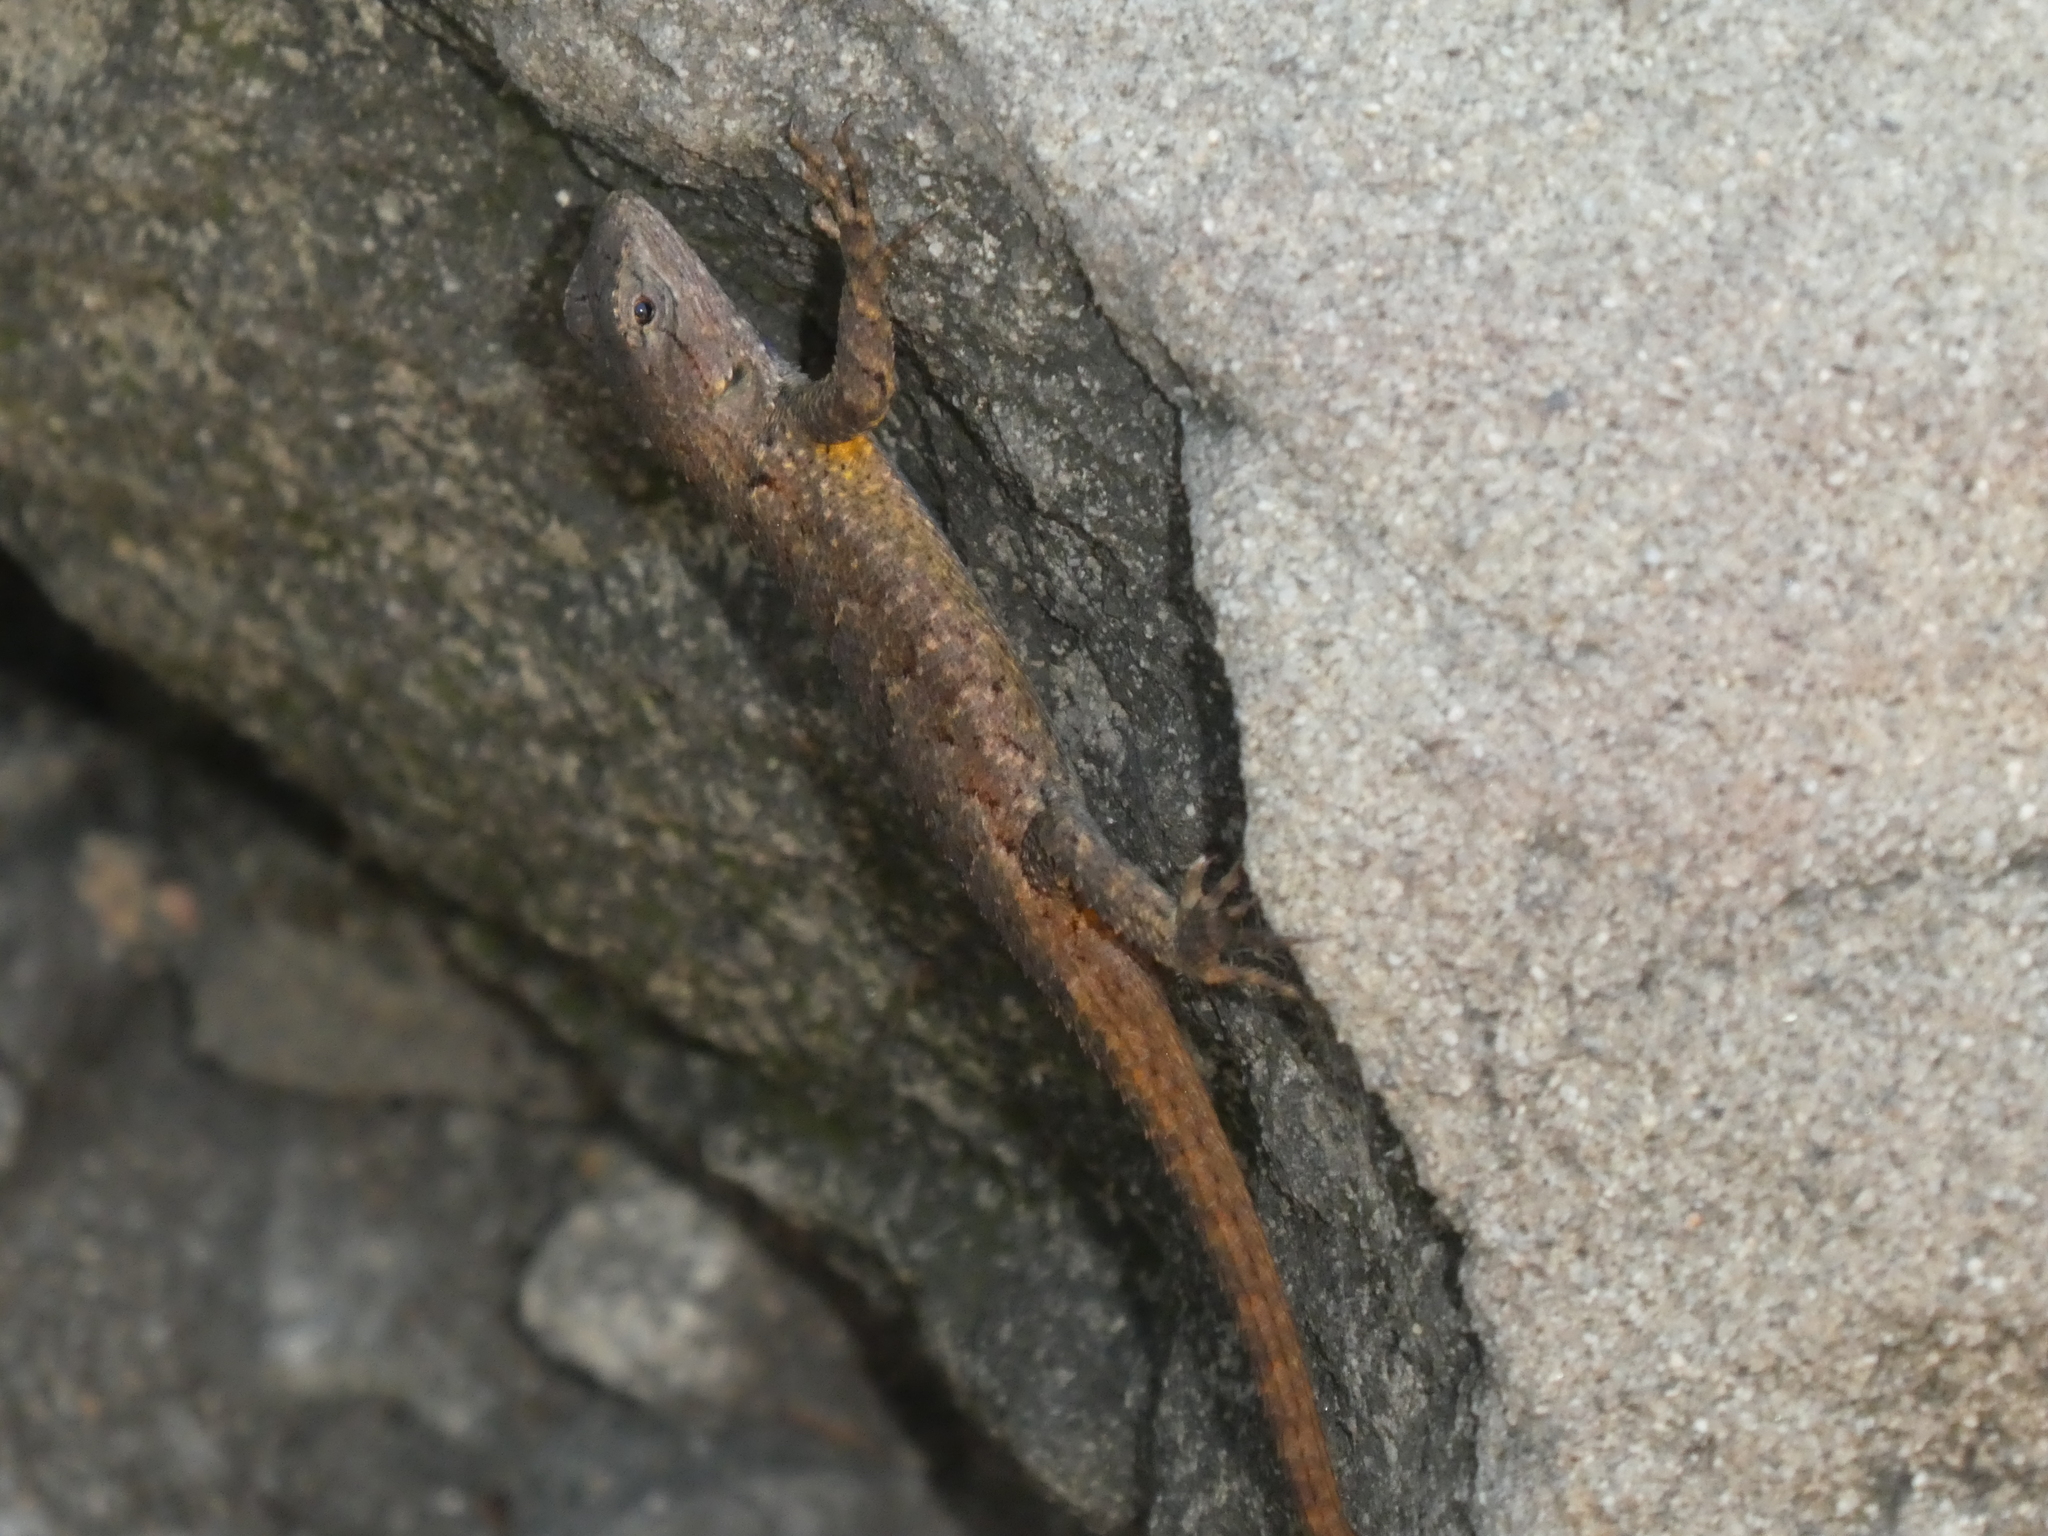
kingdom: Animalia
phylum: Chordata
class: Squamata
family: Phrynosomatidae
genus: Sceloporus
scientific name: Sceloporus occidentalis
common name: Western fence lizard
